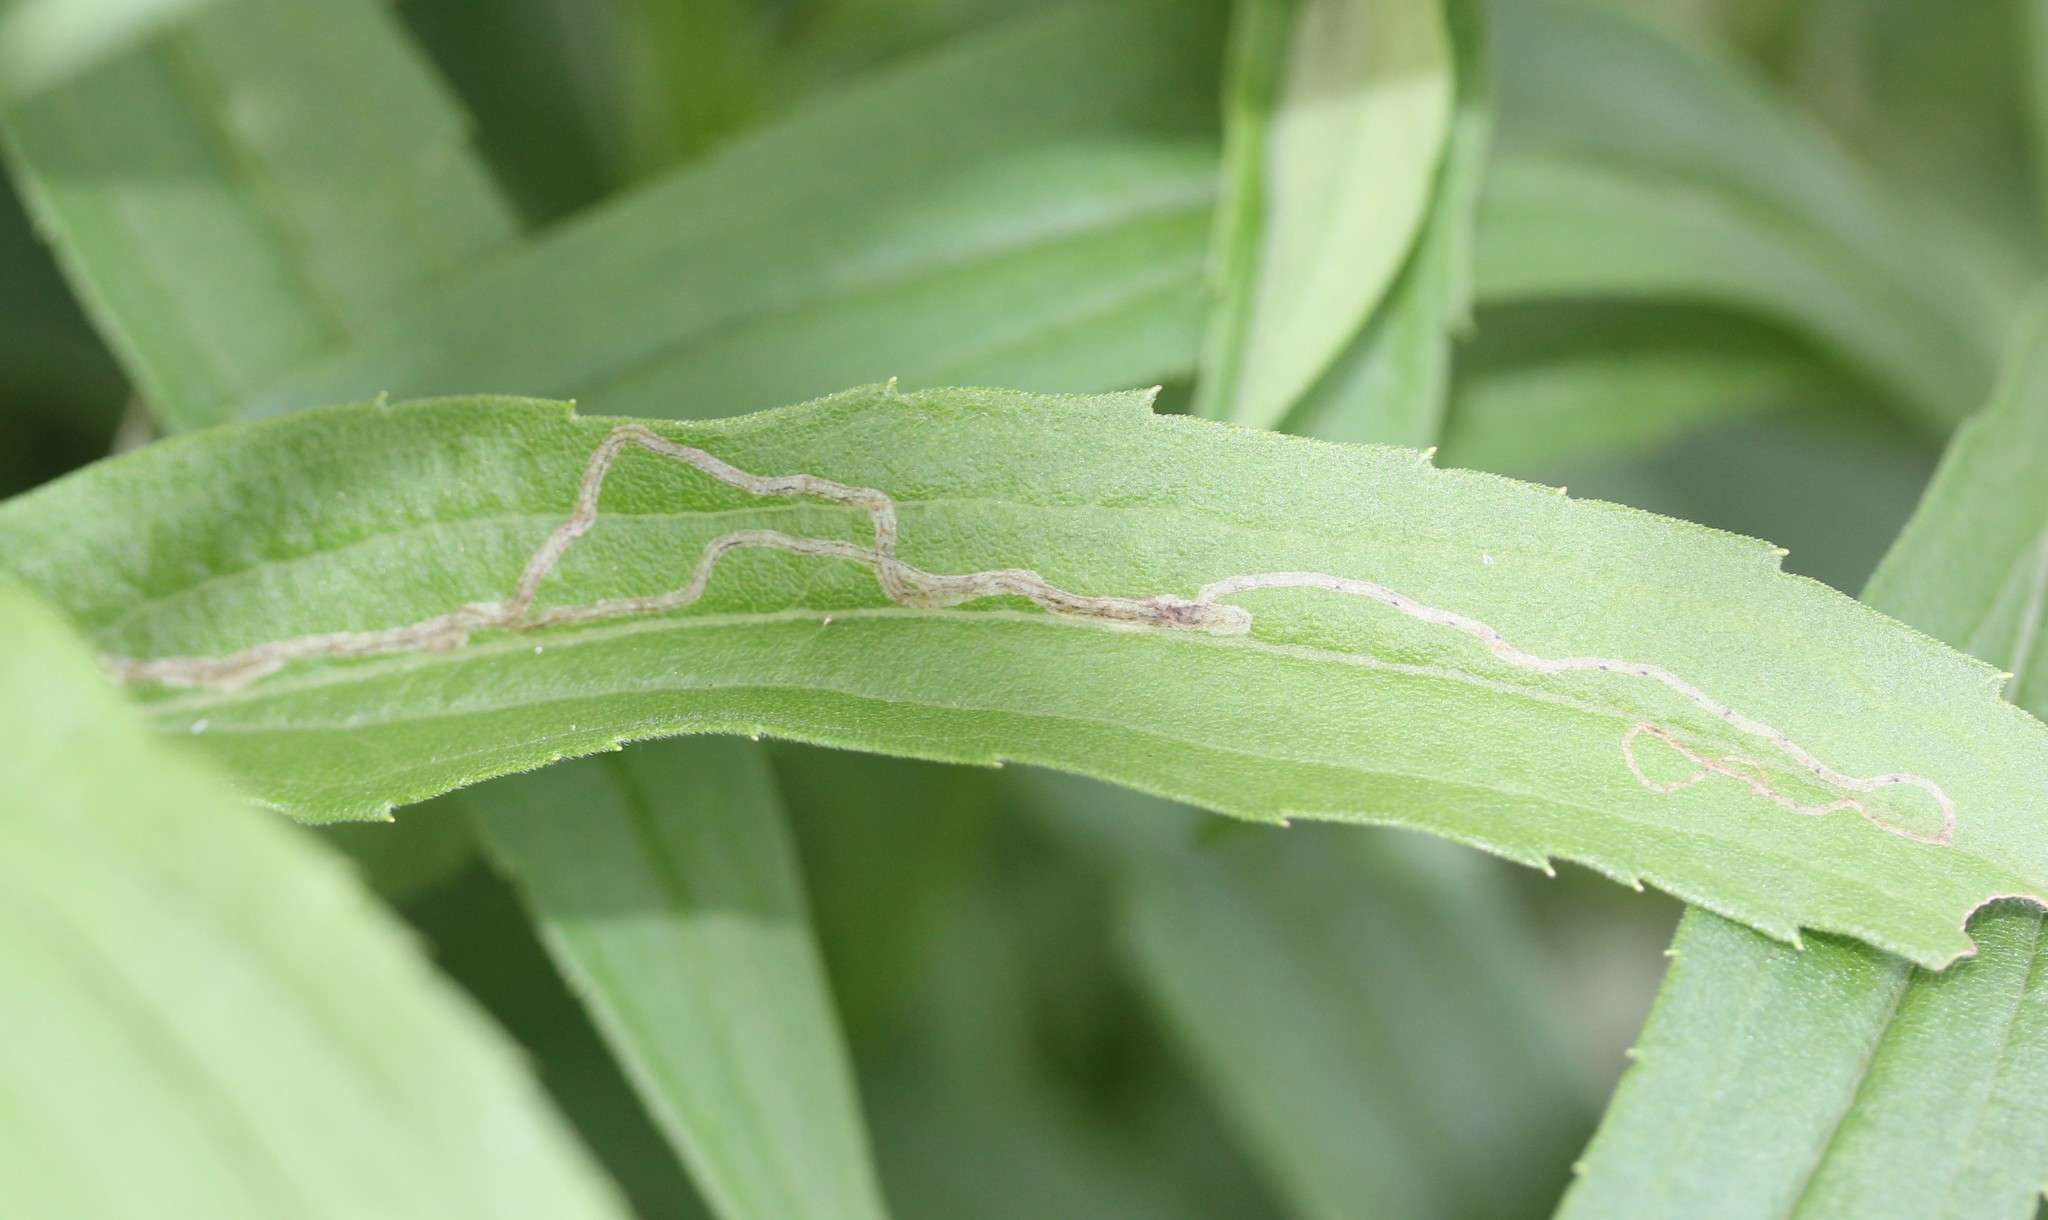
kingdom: Animalia
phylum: Arthropoda
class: Insecta
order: Diptera
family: Agromyzidae
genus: Ophiomyia
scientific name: Ophiomyia maura
